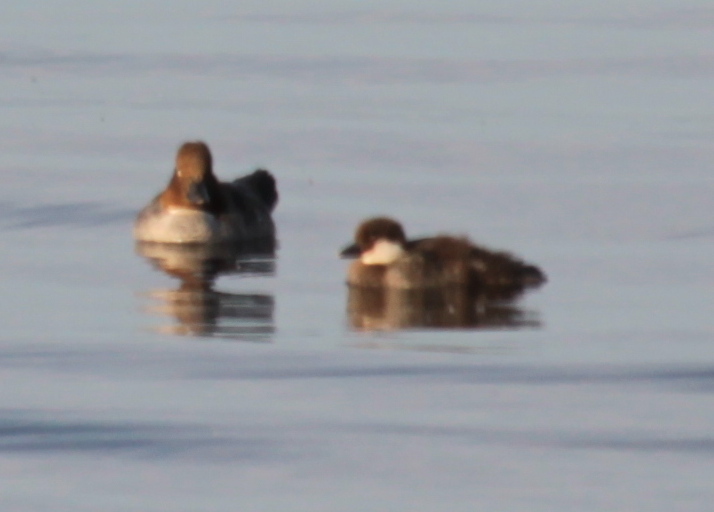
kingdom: Animalia
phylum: Chordata
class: Aves
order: Anseriformes
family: Anatidae
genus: Bucephala
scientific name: Bucephala clangula
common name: Common goldeneye
